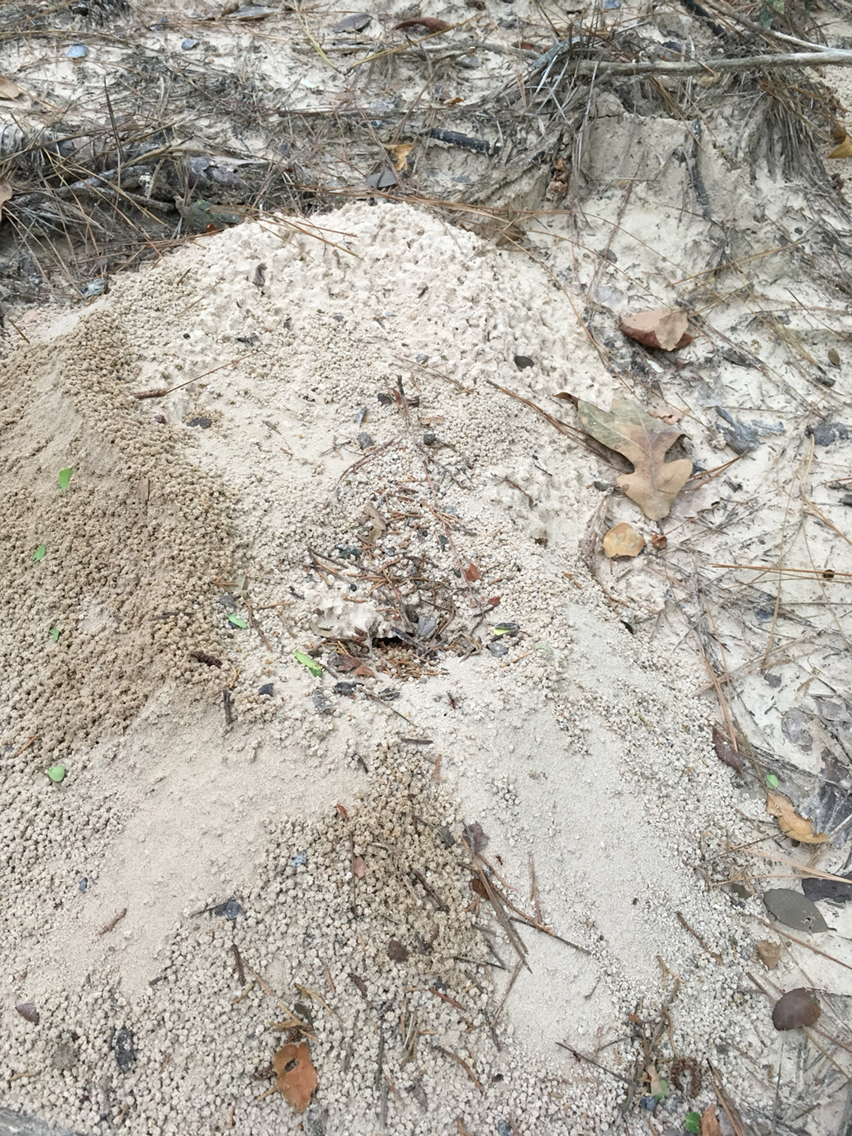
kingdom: Animalia
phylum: Arthropoda
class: Insecta
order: Hymenoptera
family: Formicidae
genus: Atta
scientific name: Atta texana
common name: Texas leafcutting ant
